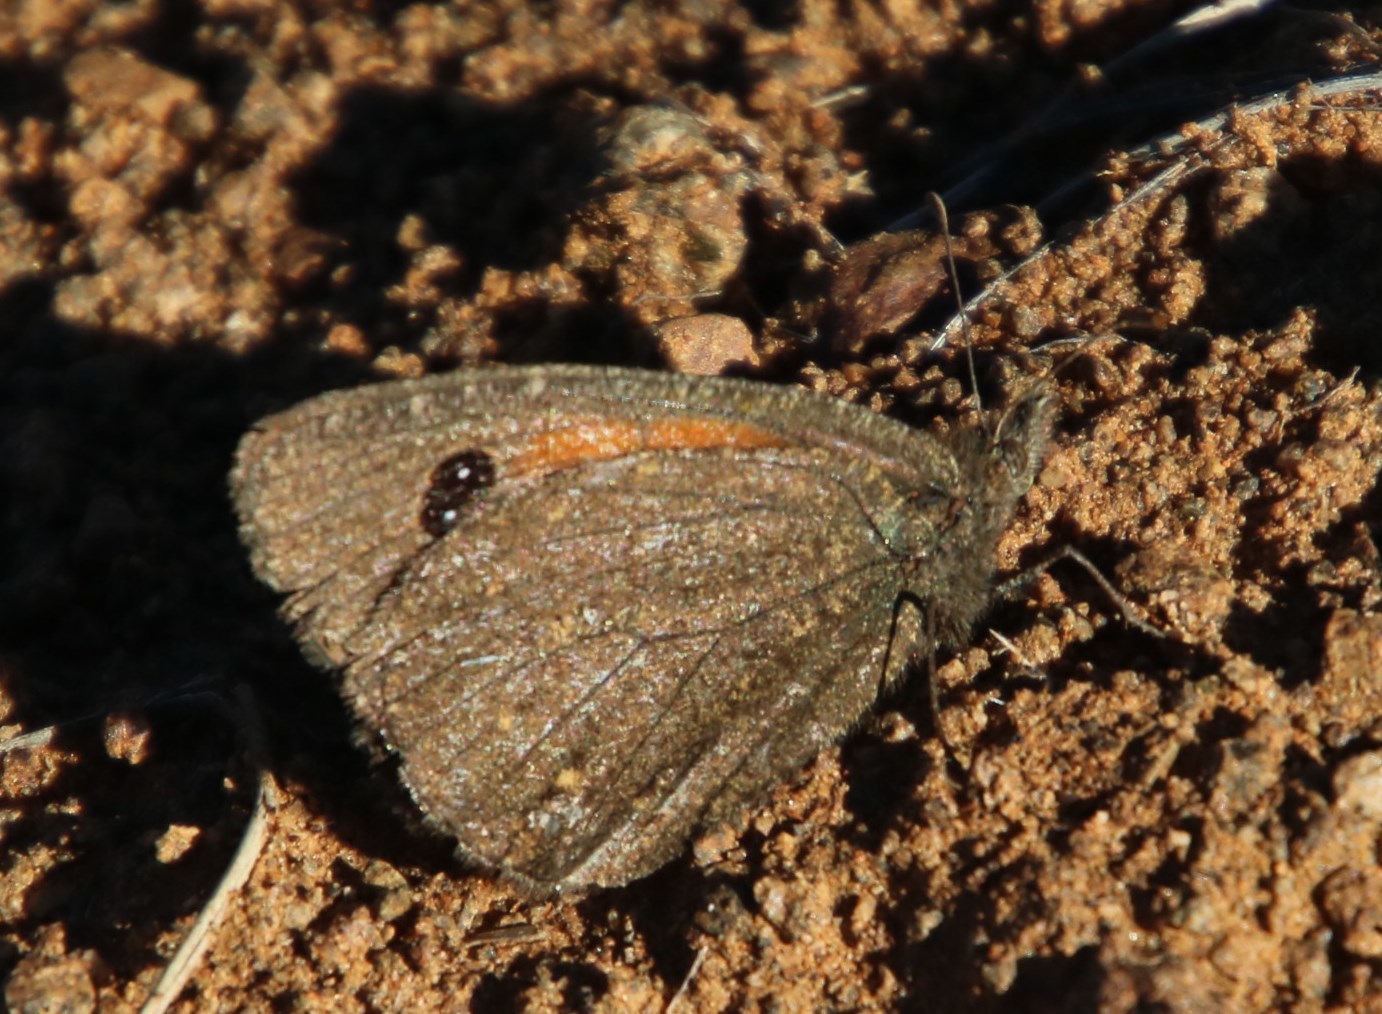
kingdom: Animalia
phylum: Arthropoda
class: Insecta
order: Lepidoptera
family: Nymphalidae
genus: Stygionympha
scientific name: Stygionympha irrorata
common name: Karoo hillside brown
